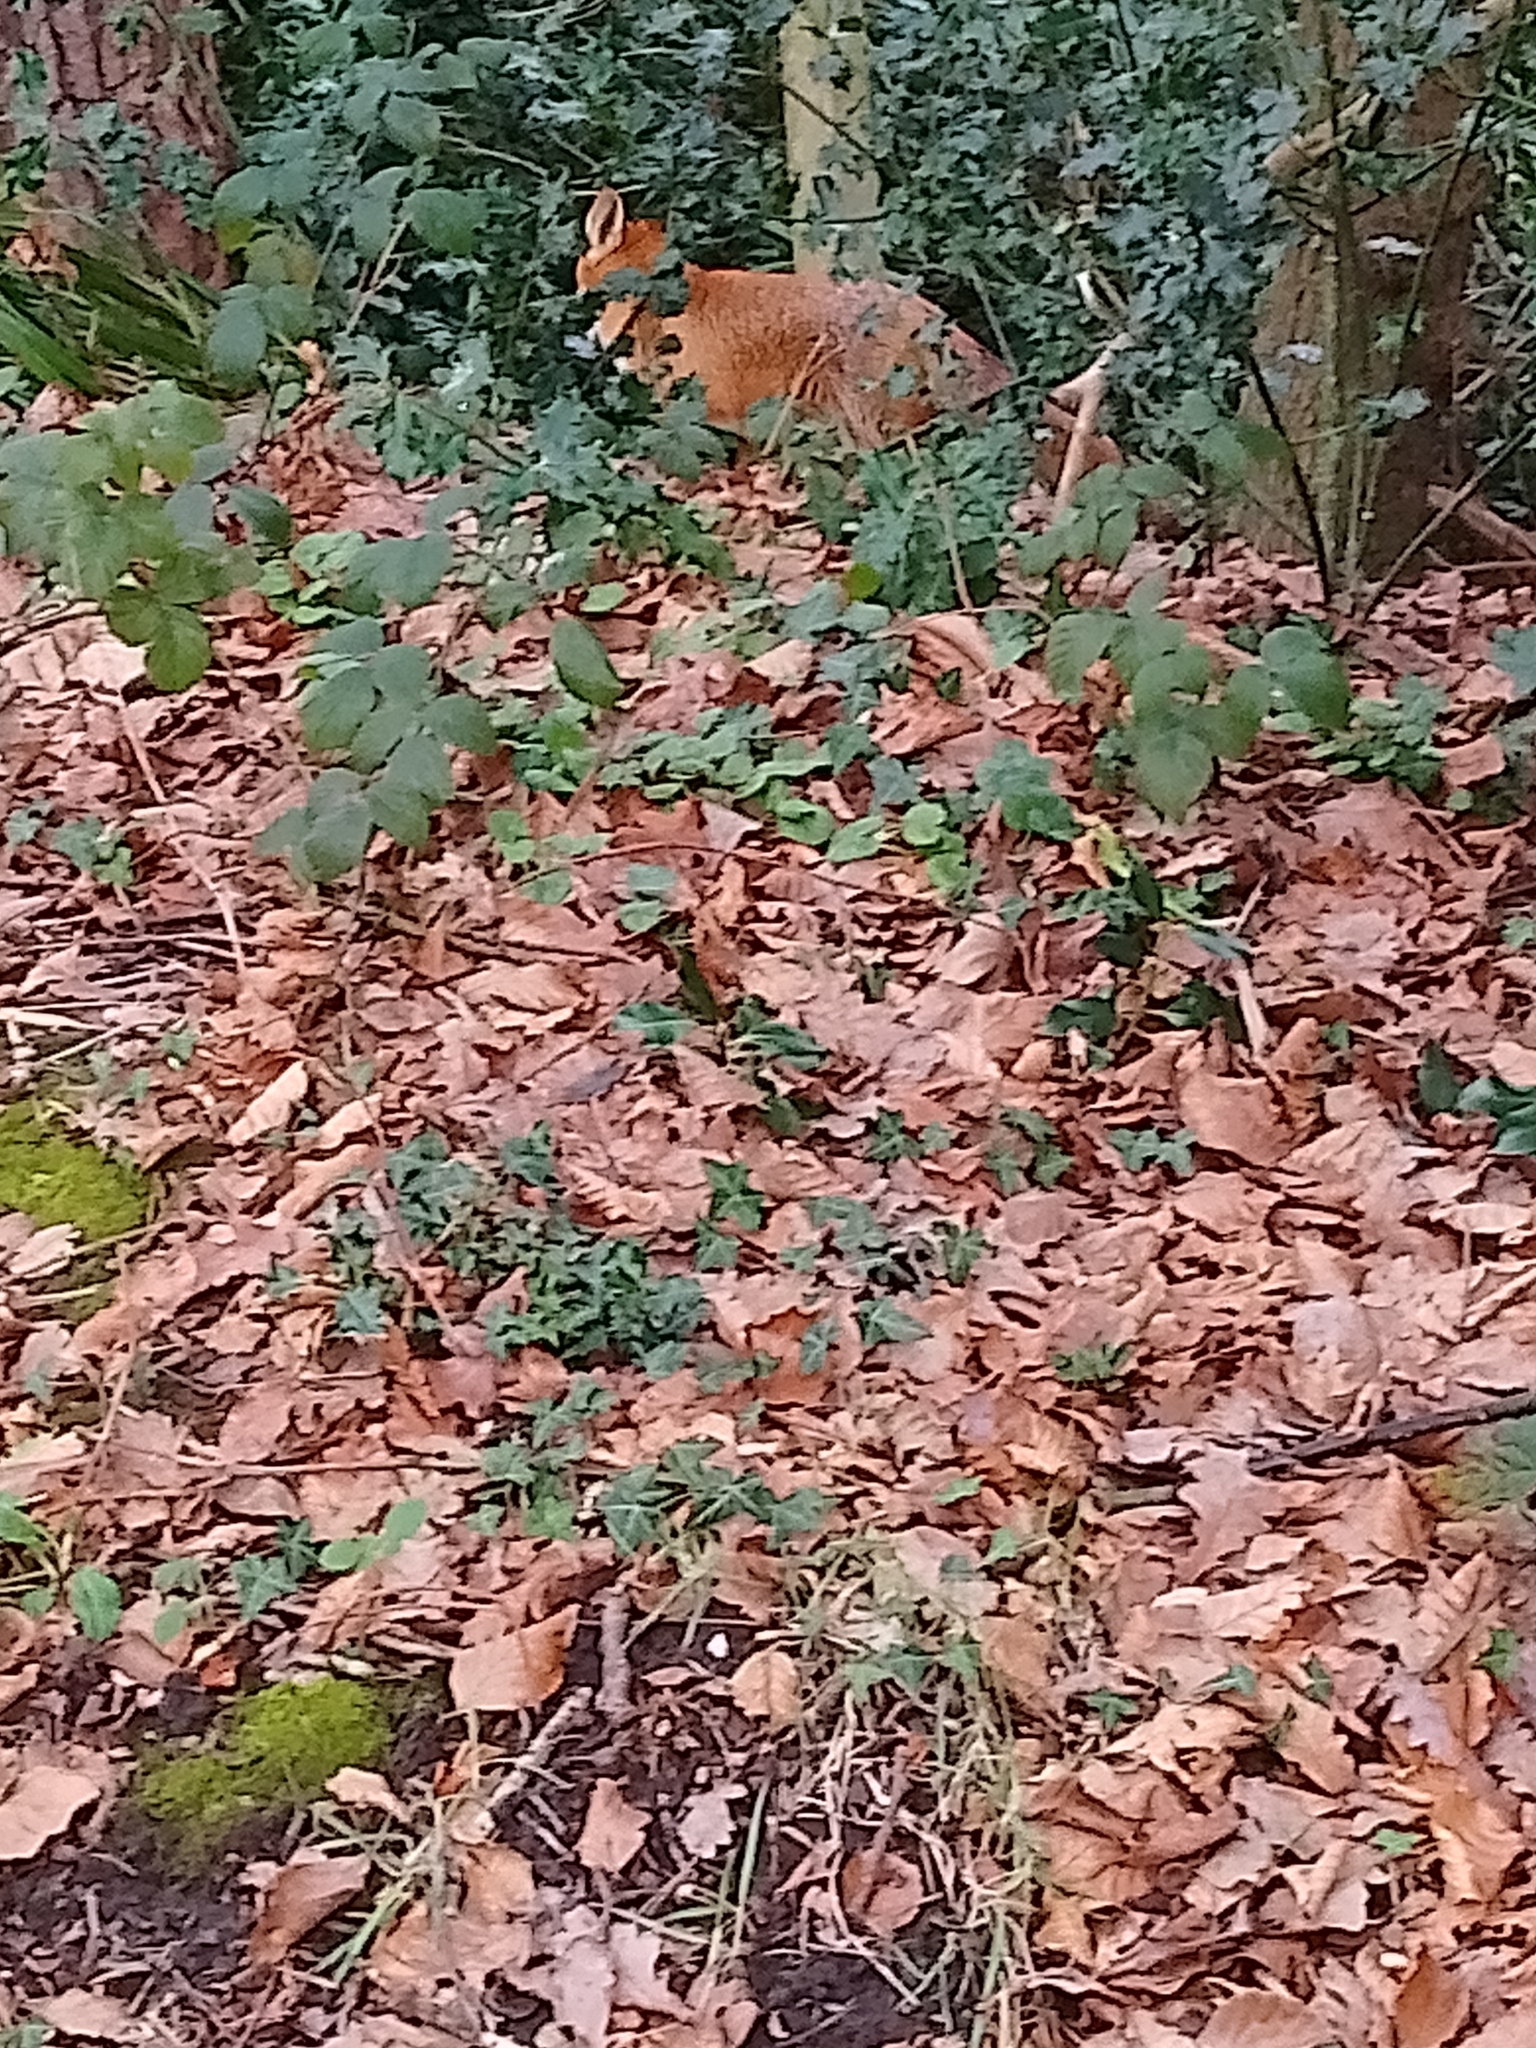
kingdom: Animalia
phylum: Chordata
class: Mammalia
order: Carnivora
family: Canidae
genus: Vulpes
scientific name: Vulpes vulpes
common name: Red fox
